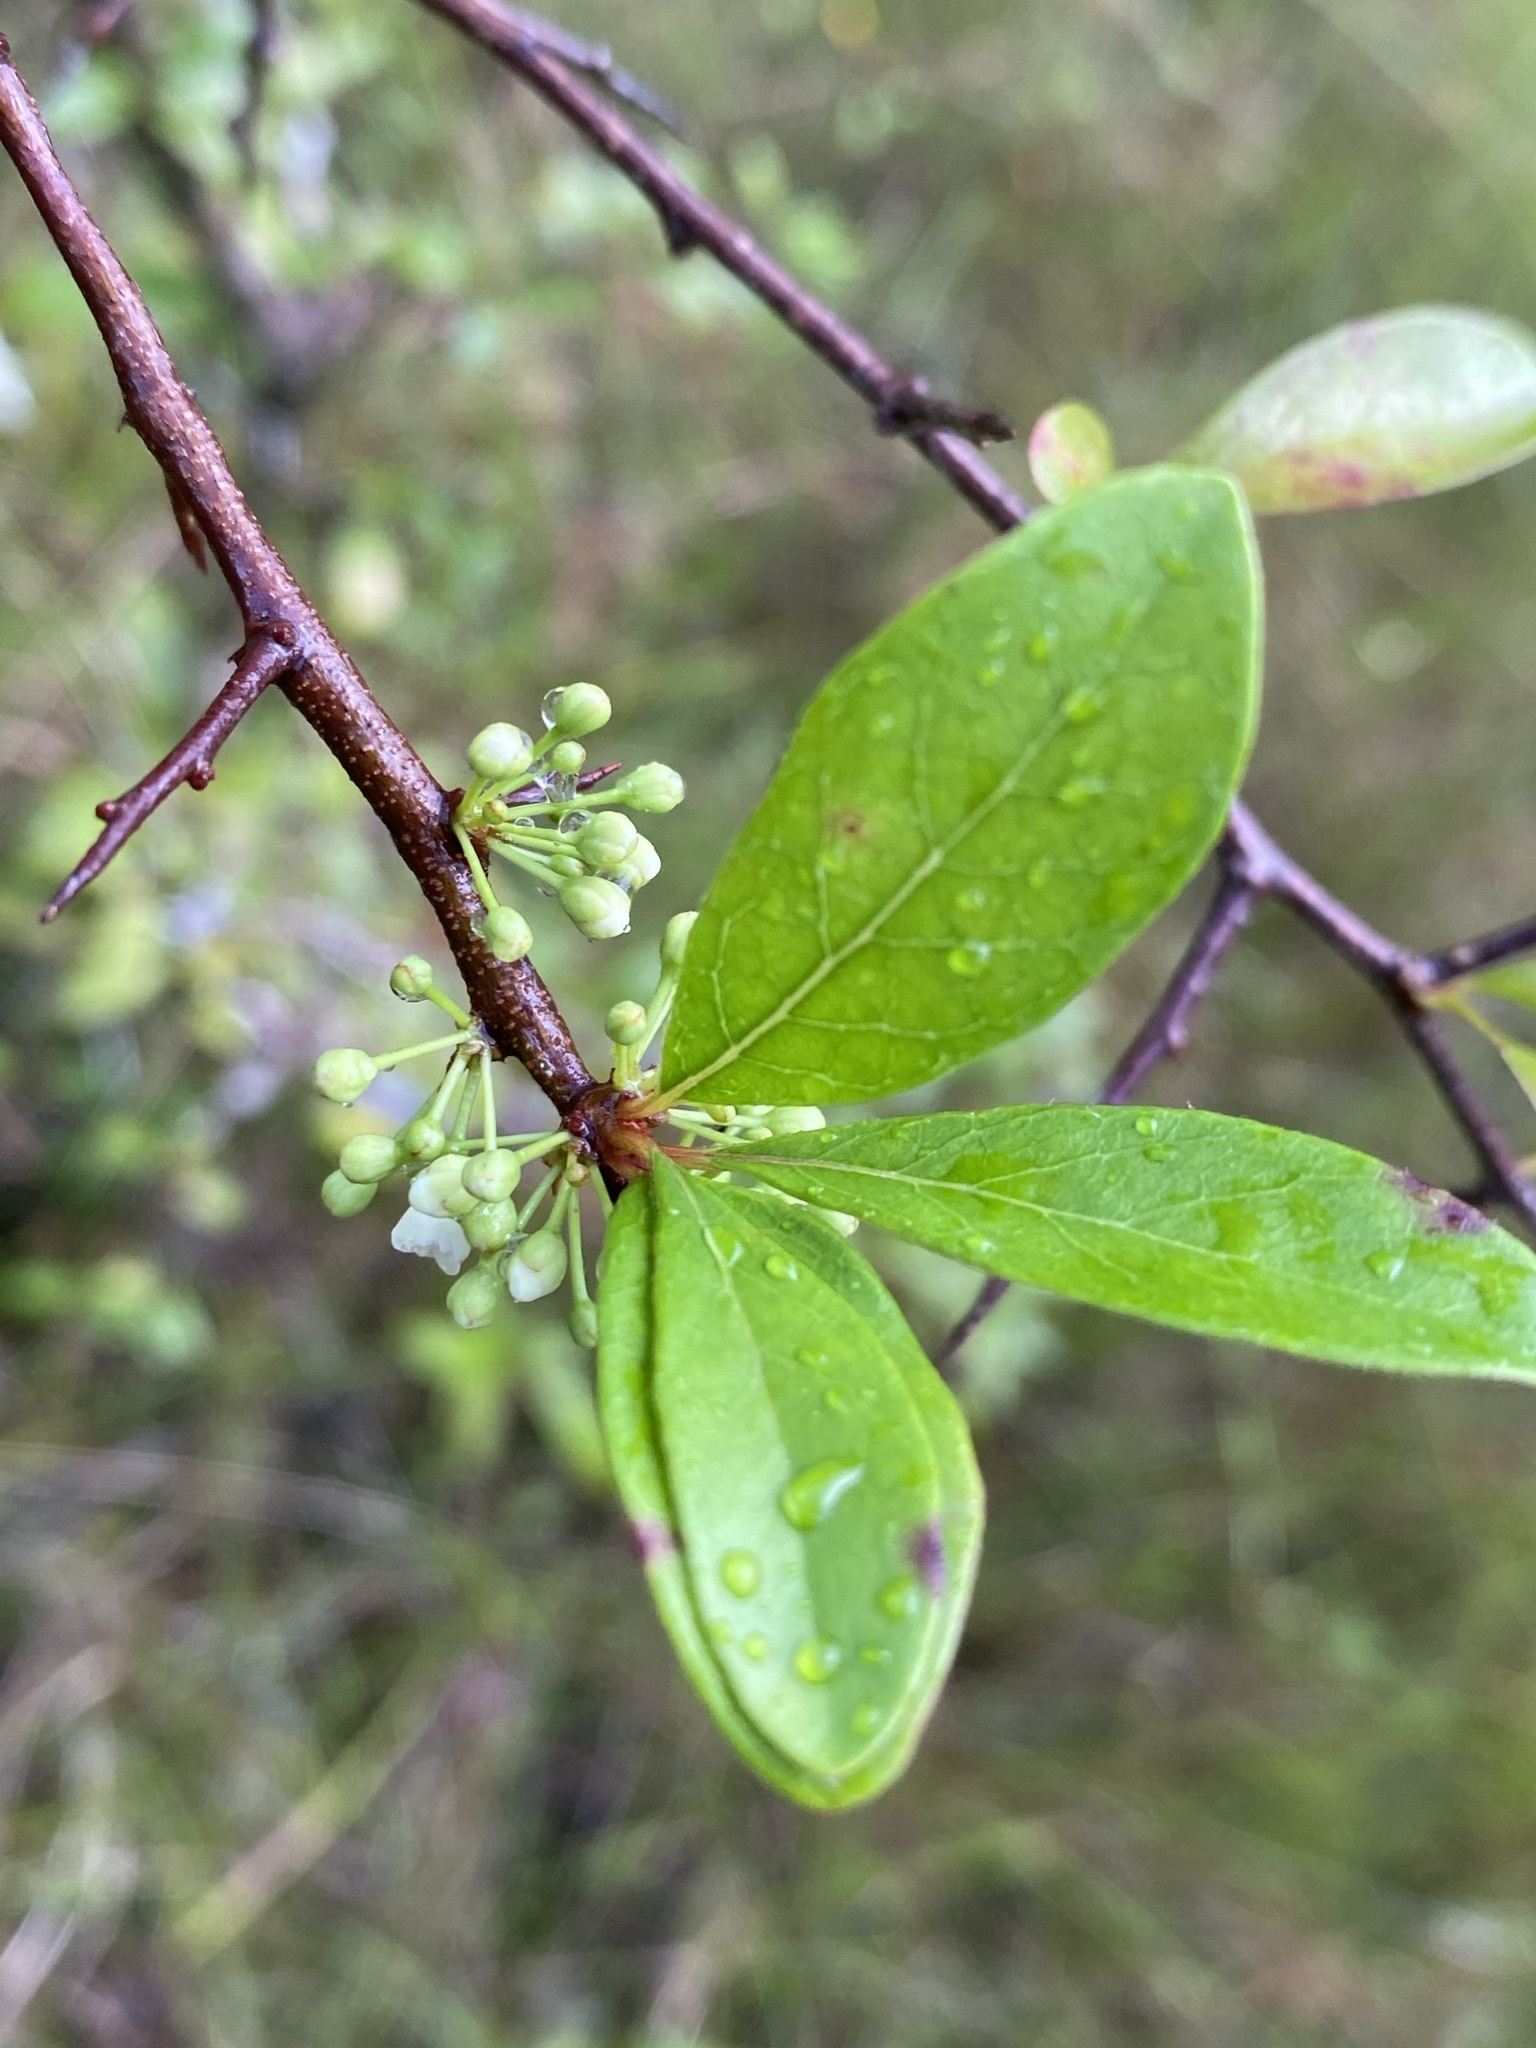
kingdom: Plantae
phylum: Tracheophyta
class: Magnoliopsida
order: Ericales
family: Sapotaceae
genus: Sideroxylon
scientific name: Sideroxylon lanuginosum
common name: Chittamwood
